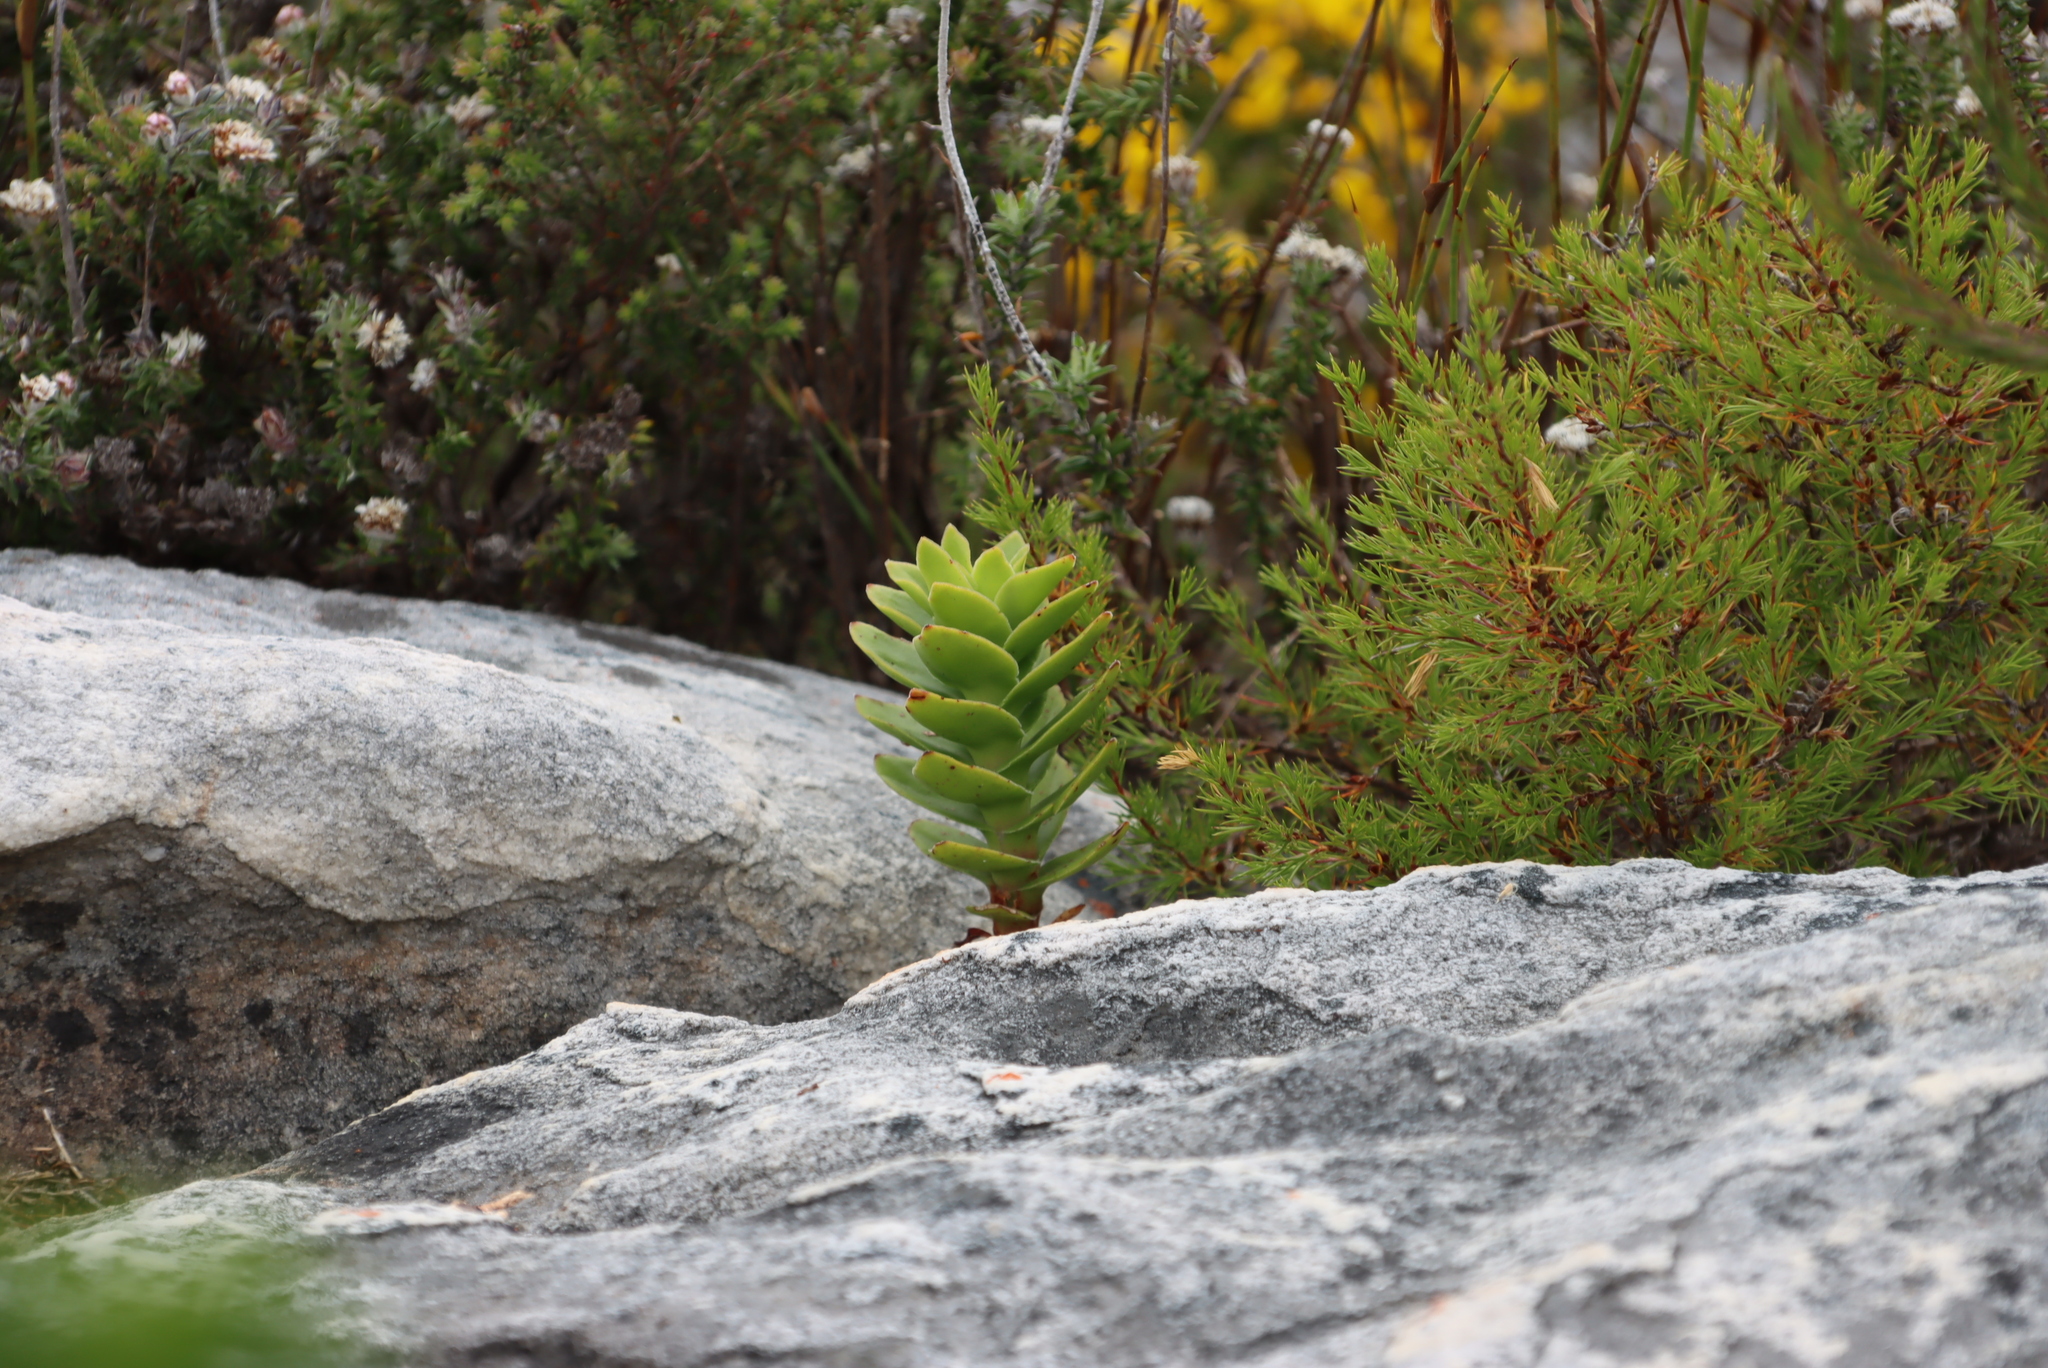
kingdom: Plantae
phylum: Tracheophyta
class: Magnoliopsida
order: Saxifragales
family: Crassulaceae
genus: Crassula
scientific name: Crassula coccinea
